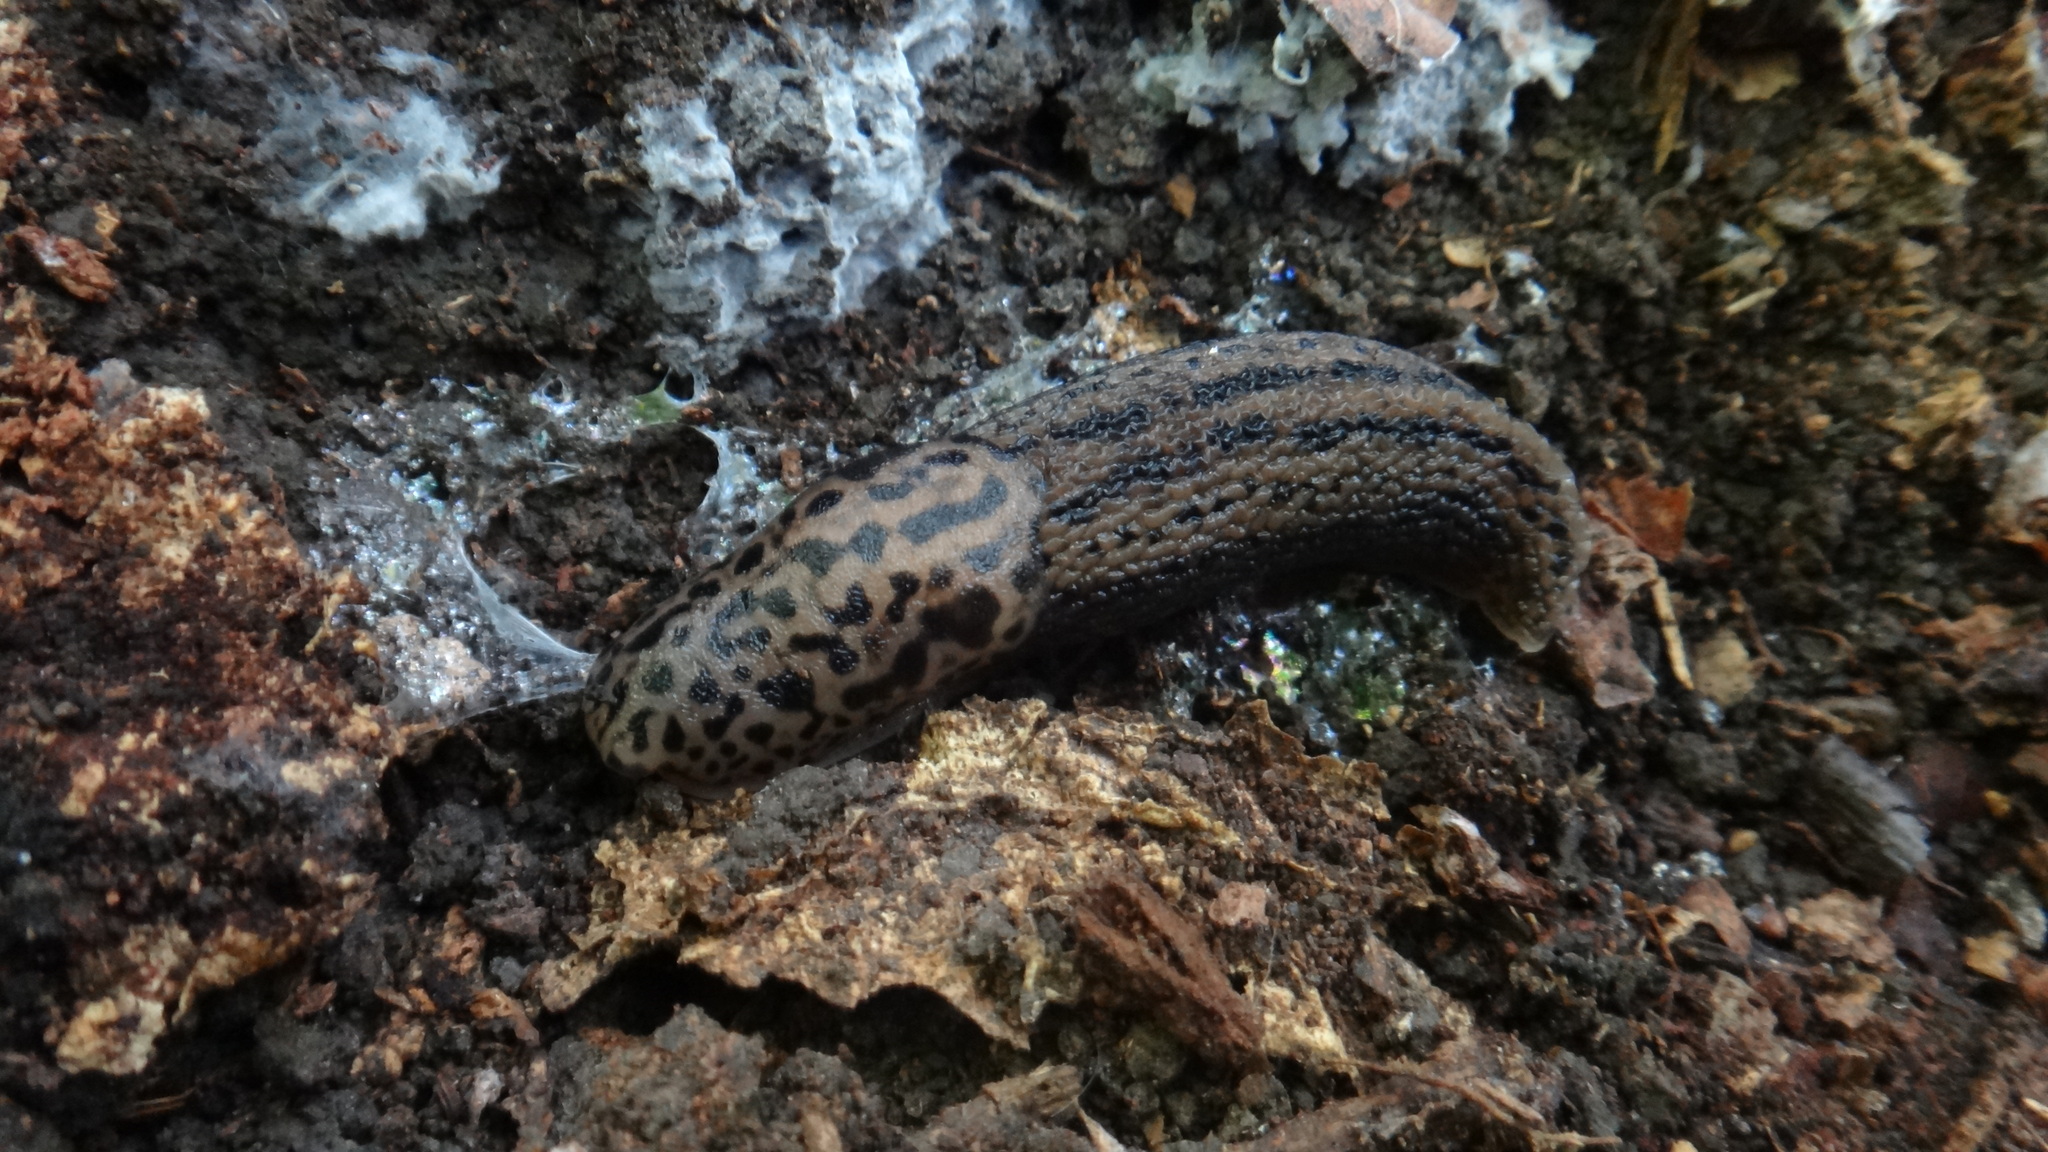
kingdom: Animalia
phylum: Mollusca
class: Gastropoda
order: Stylommatophora
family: Limacidae
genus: Limax
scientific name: Limax maximus
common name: Great grey slug
